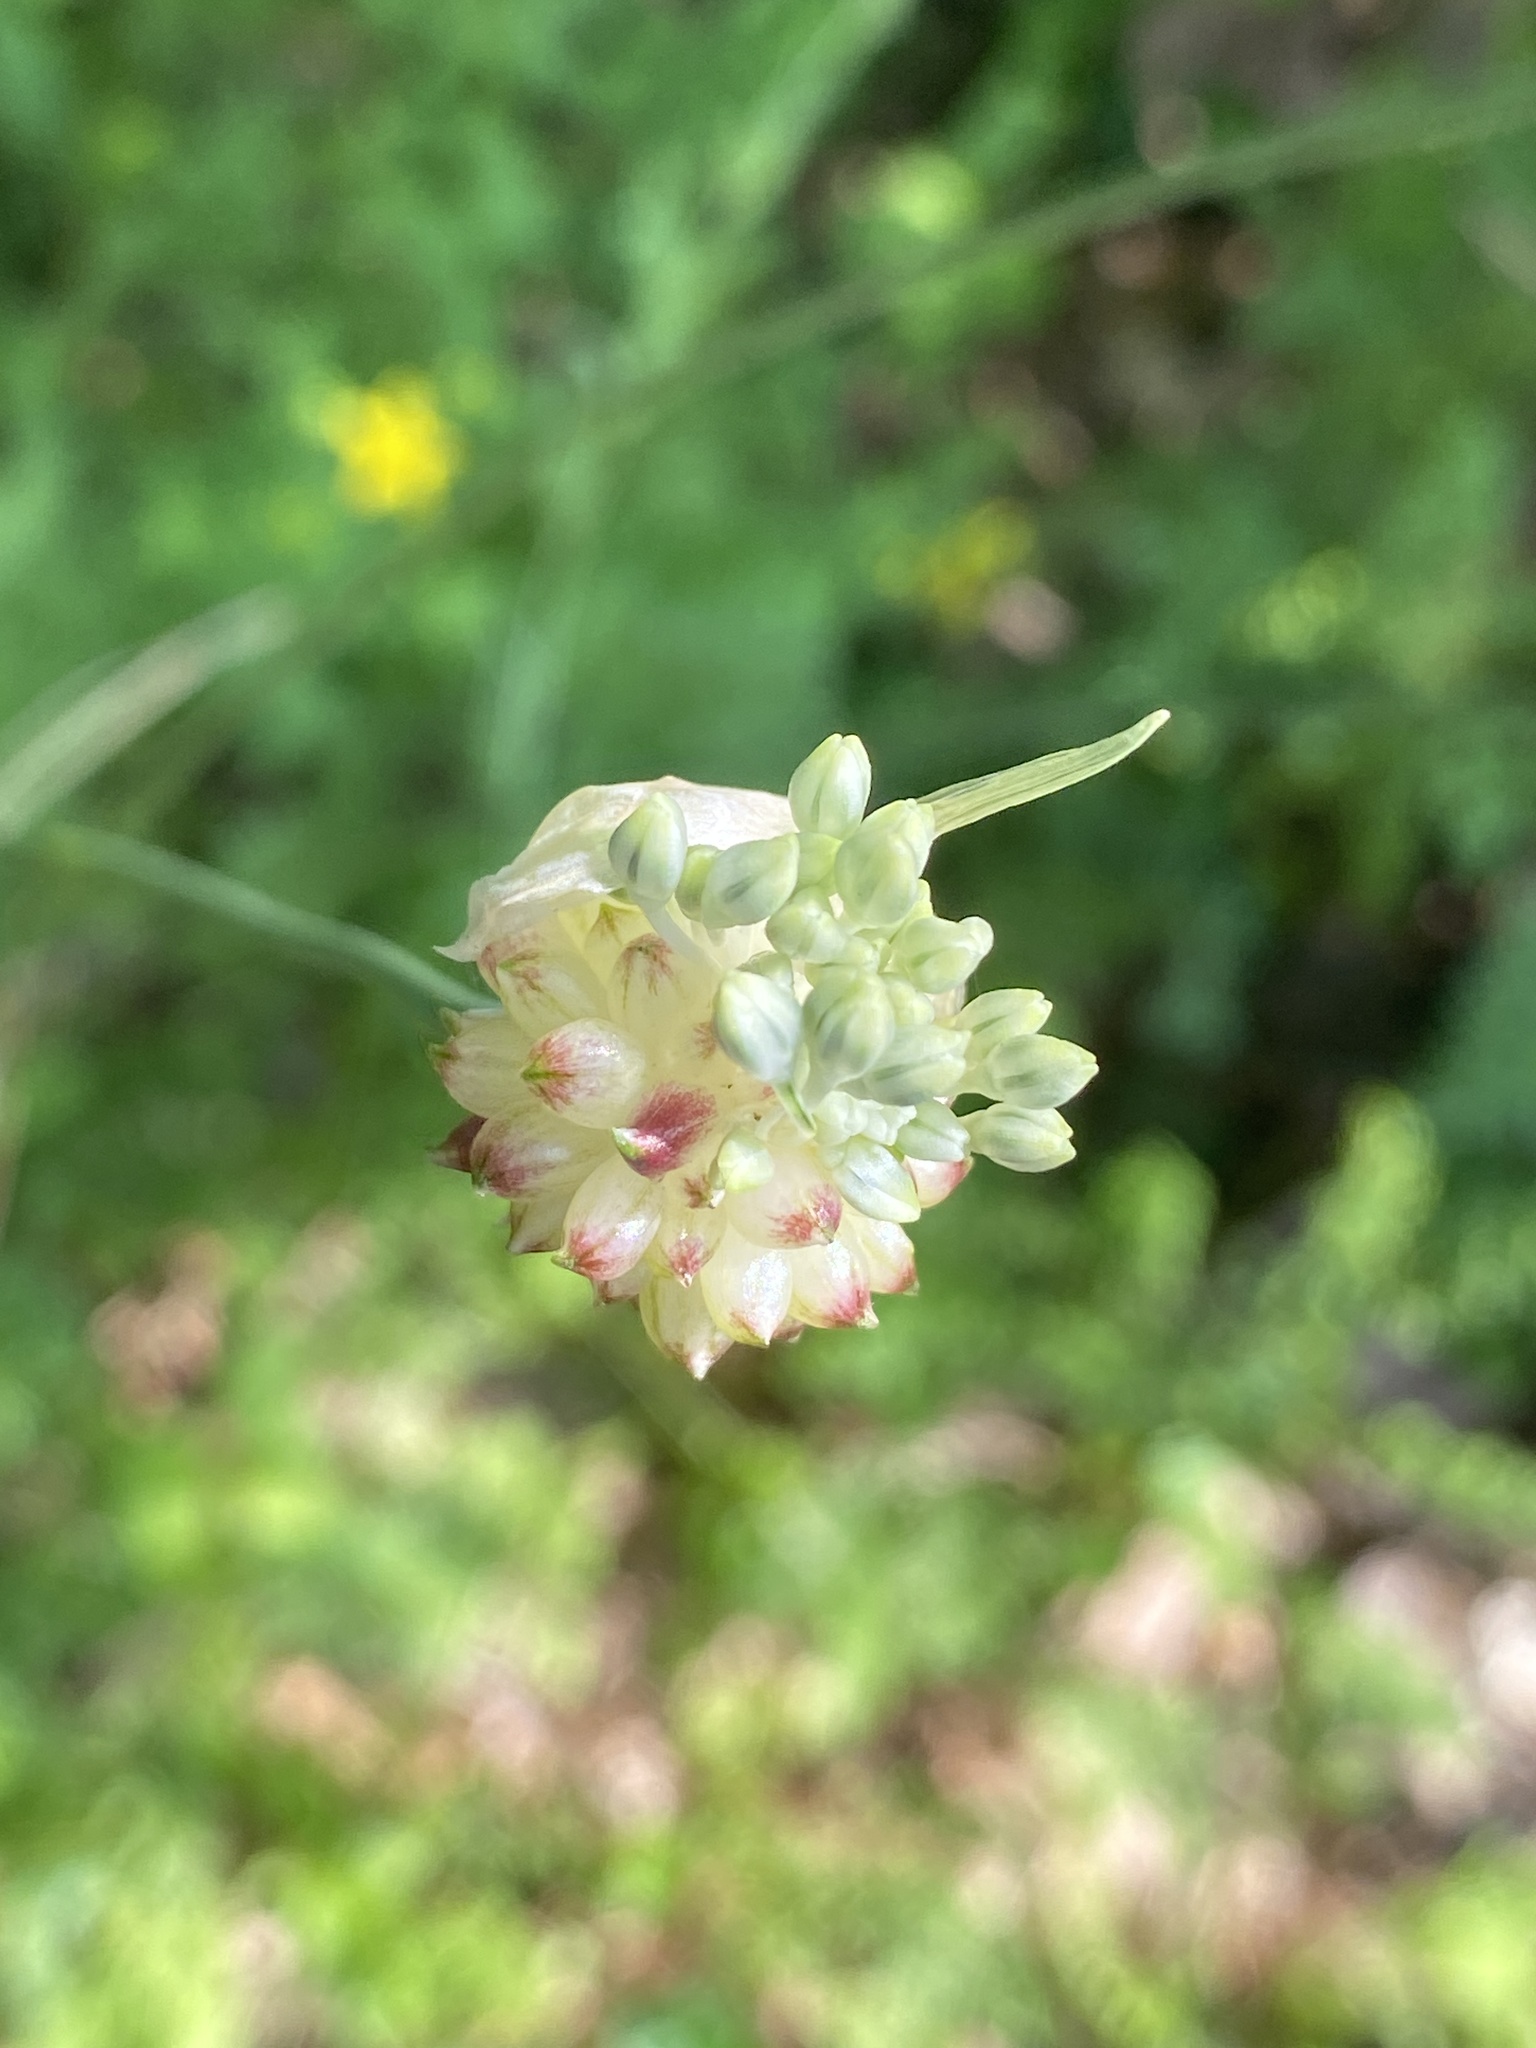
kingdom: Plantae
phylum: Tracheophyta
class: Liliopsida
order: Asparagales
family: Amaryllidaceae
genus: Allium
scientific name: Allium vineale
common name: Crow garlic
